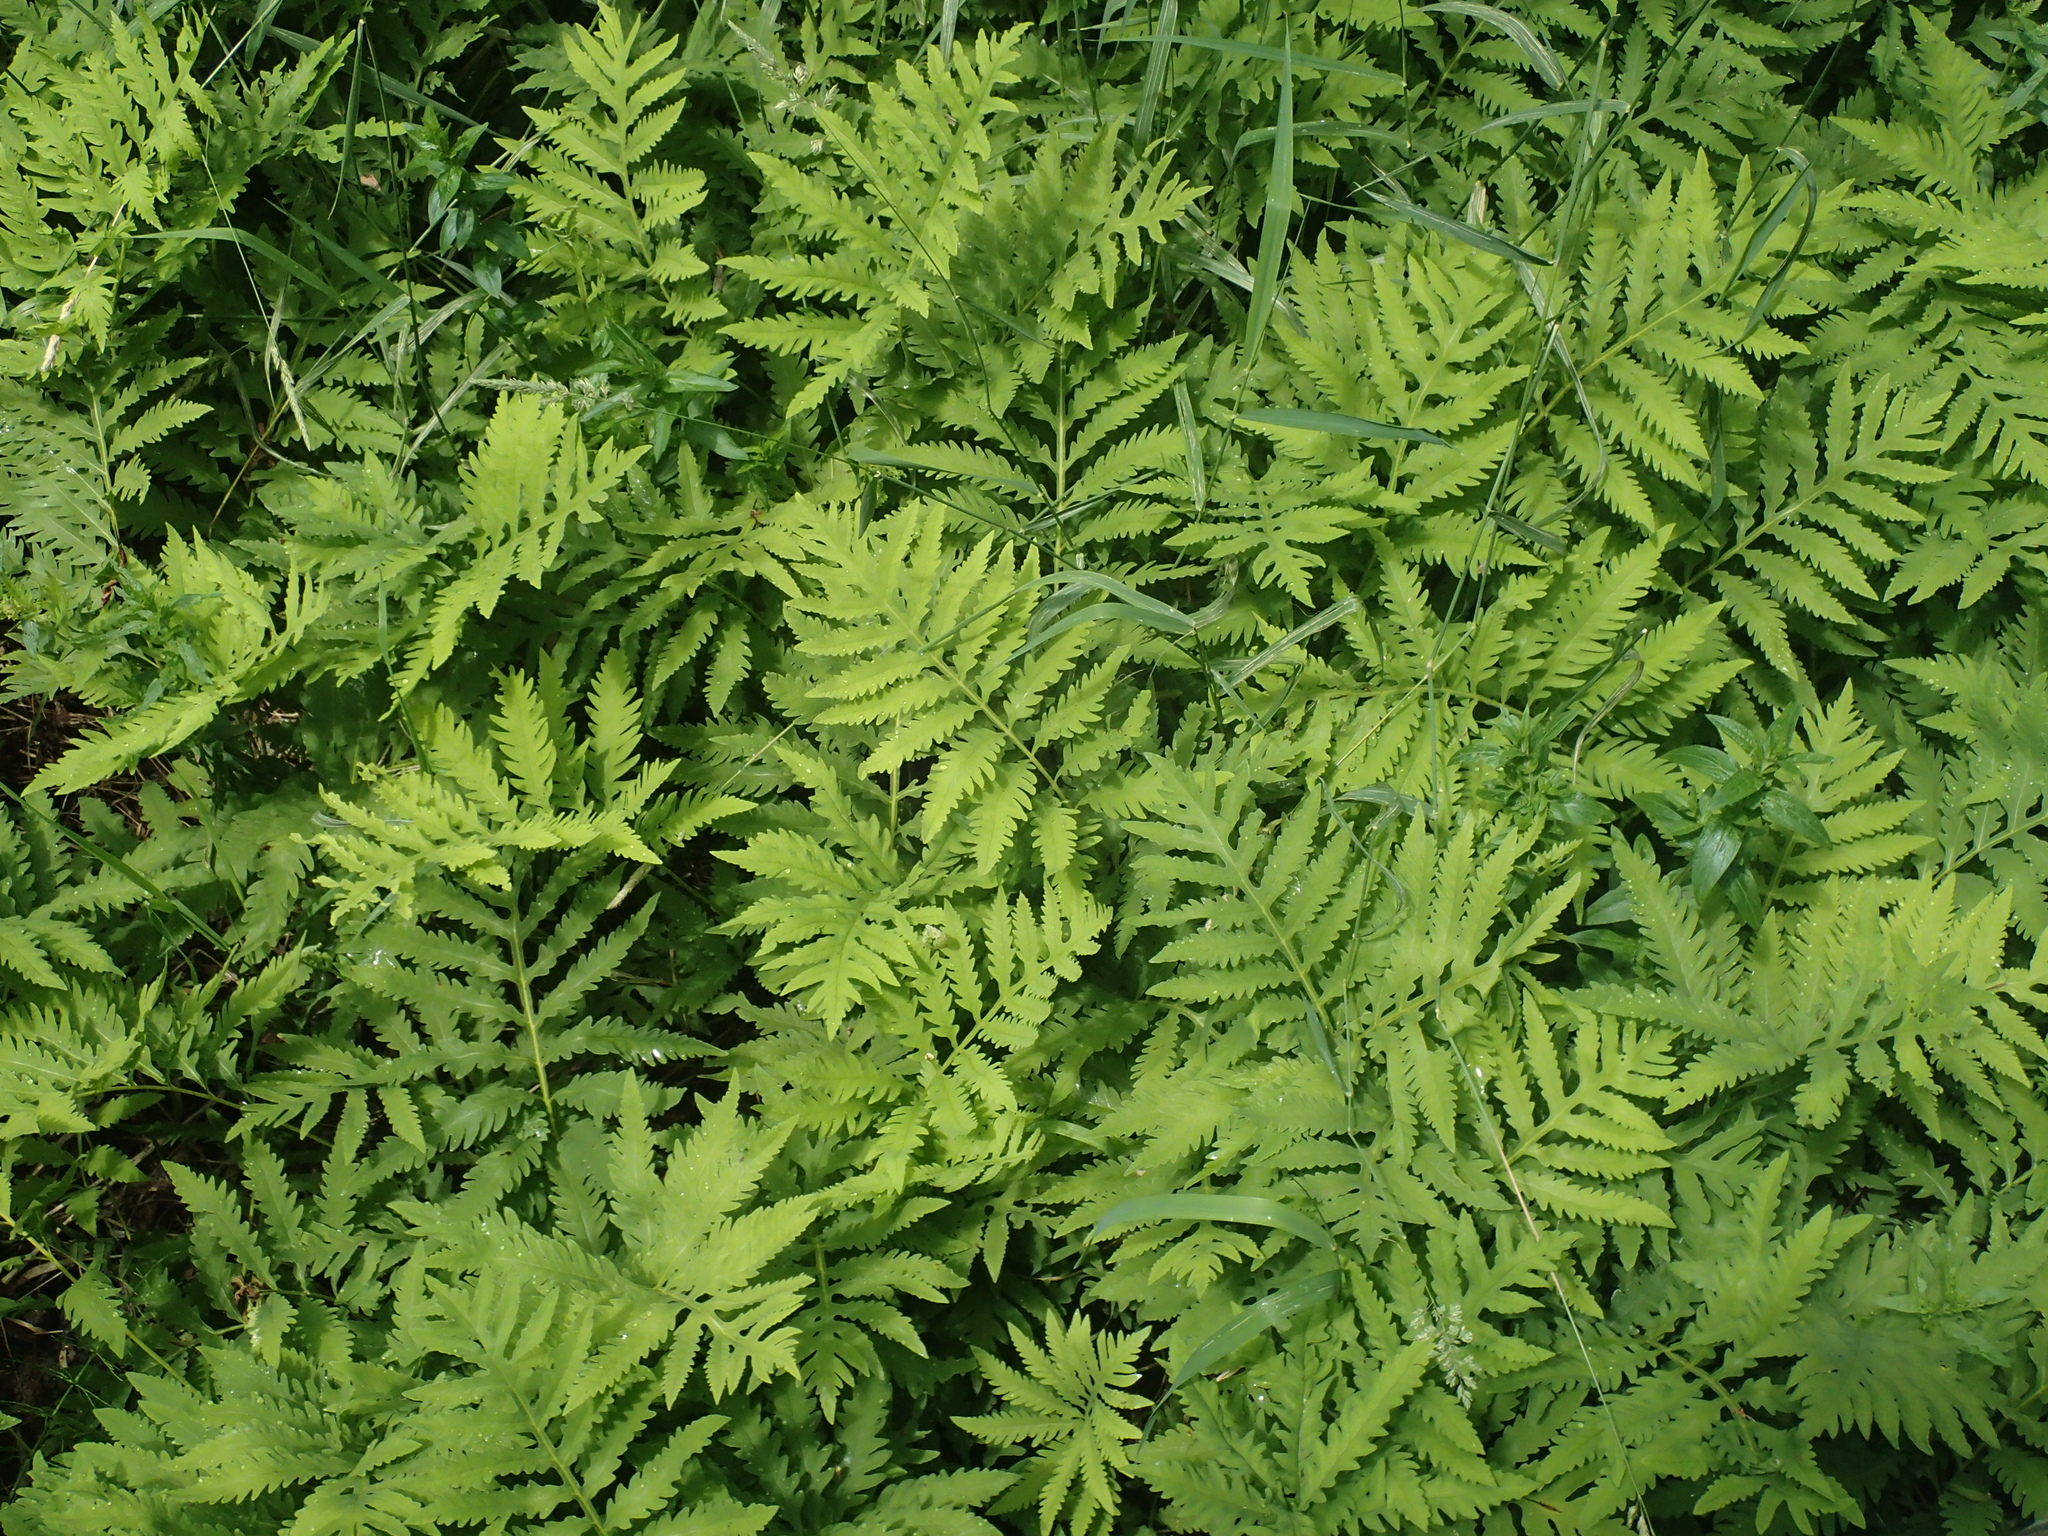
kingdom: Plantae
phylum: Tracheophyta
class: Polypodiopsida
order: Polypodiales
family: Onocleaceae
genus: Onoclea
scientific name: Onoclea sensibilis
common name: Sensitive fern
